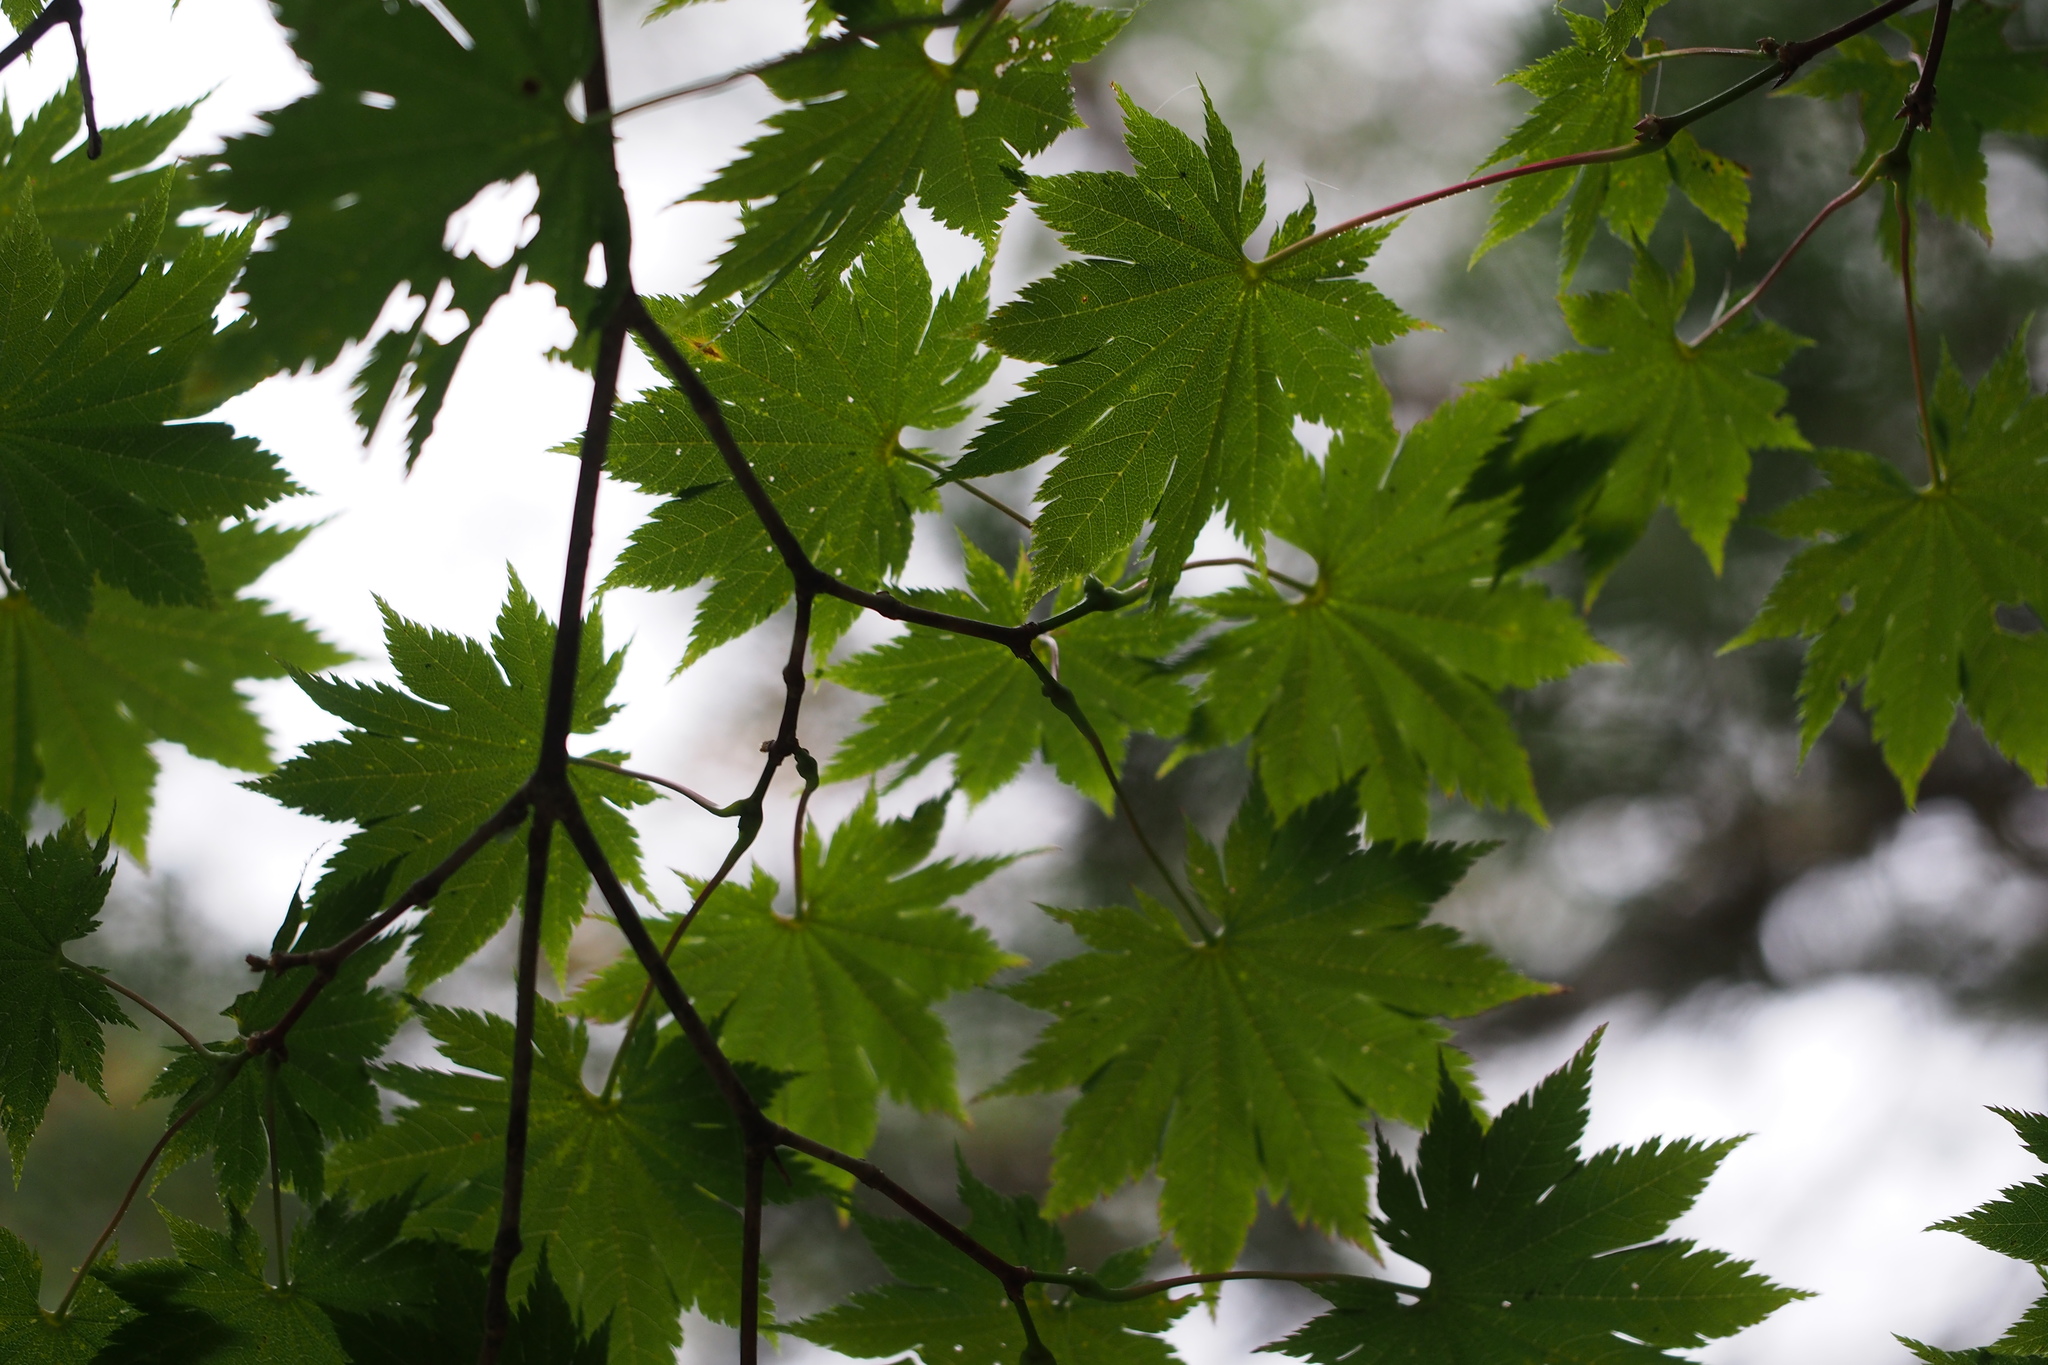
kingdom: Plantae
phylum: Tracheophyta
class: Magnoliopsida
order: Sapindales
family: Sapindaceae
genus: Acer
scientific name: Acer shirasawanum
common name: Full moon maple
